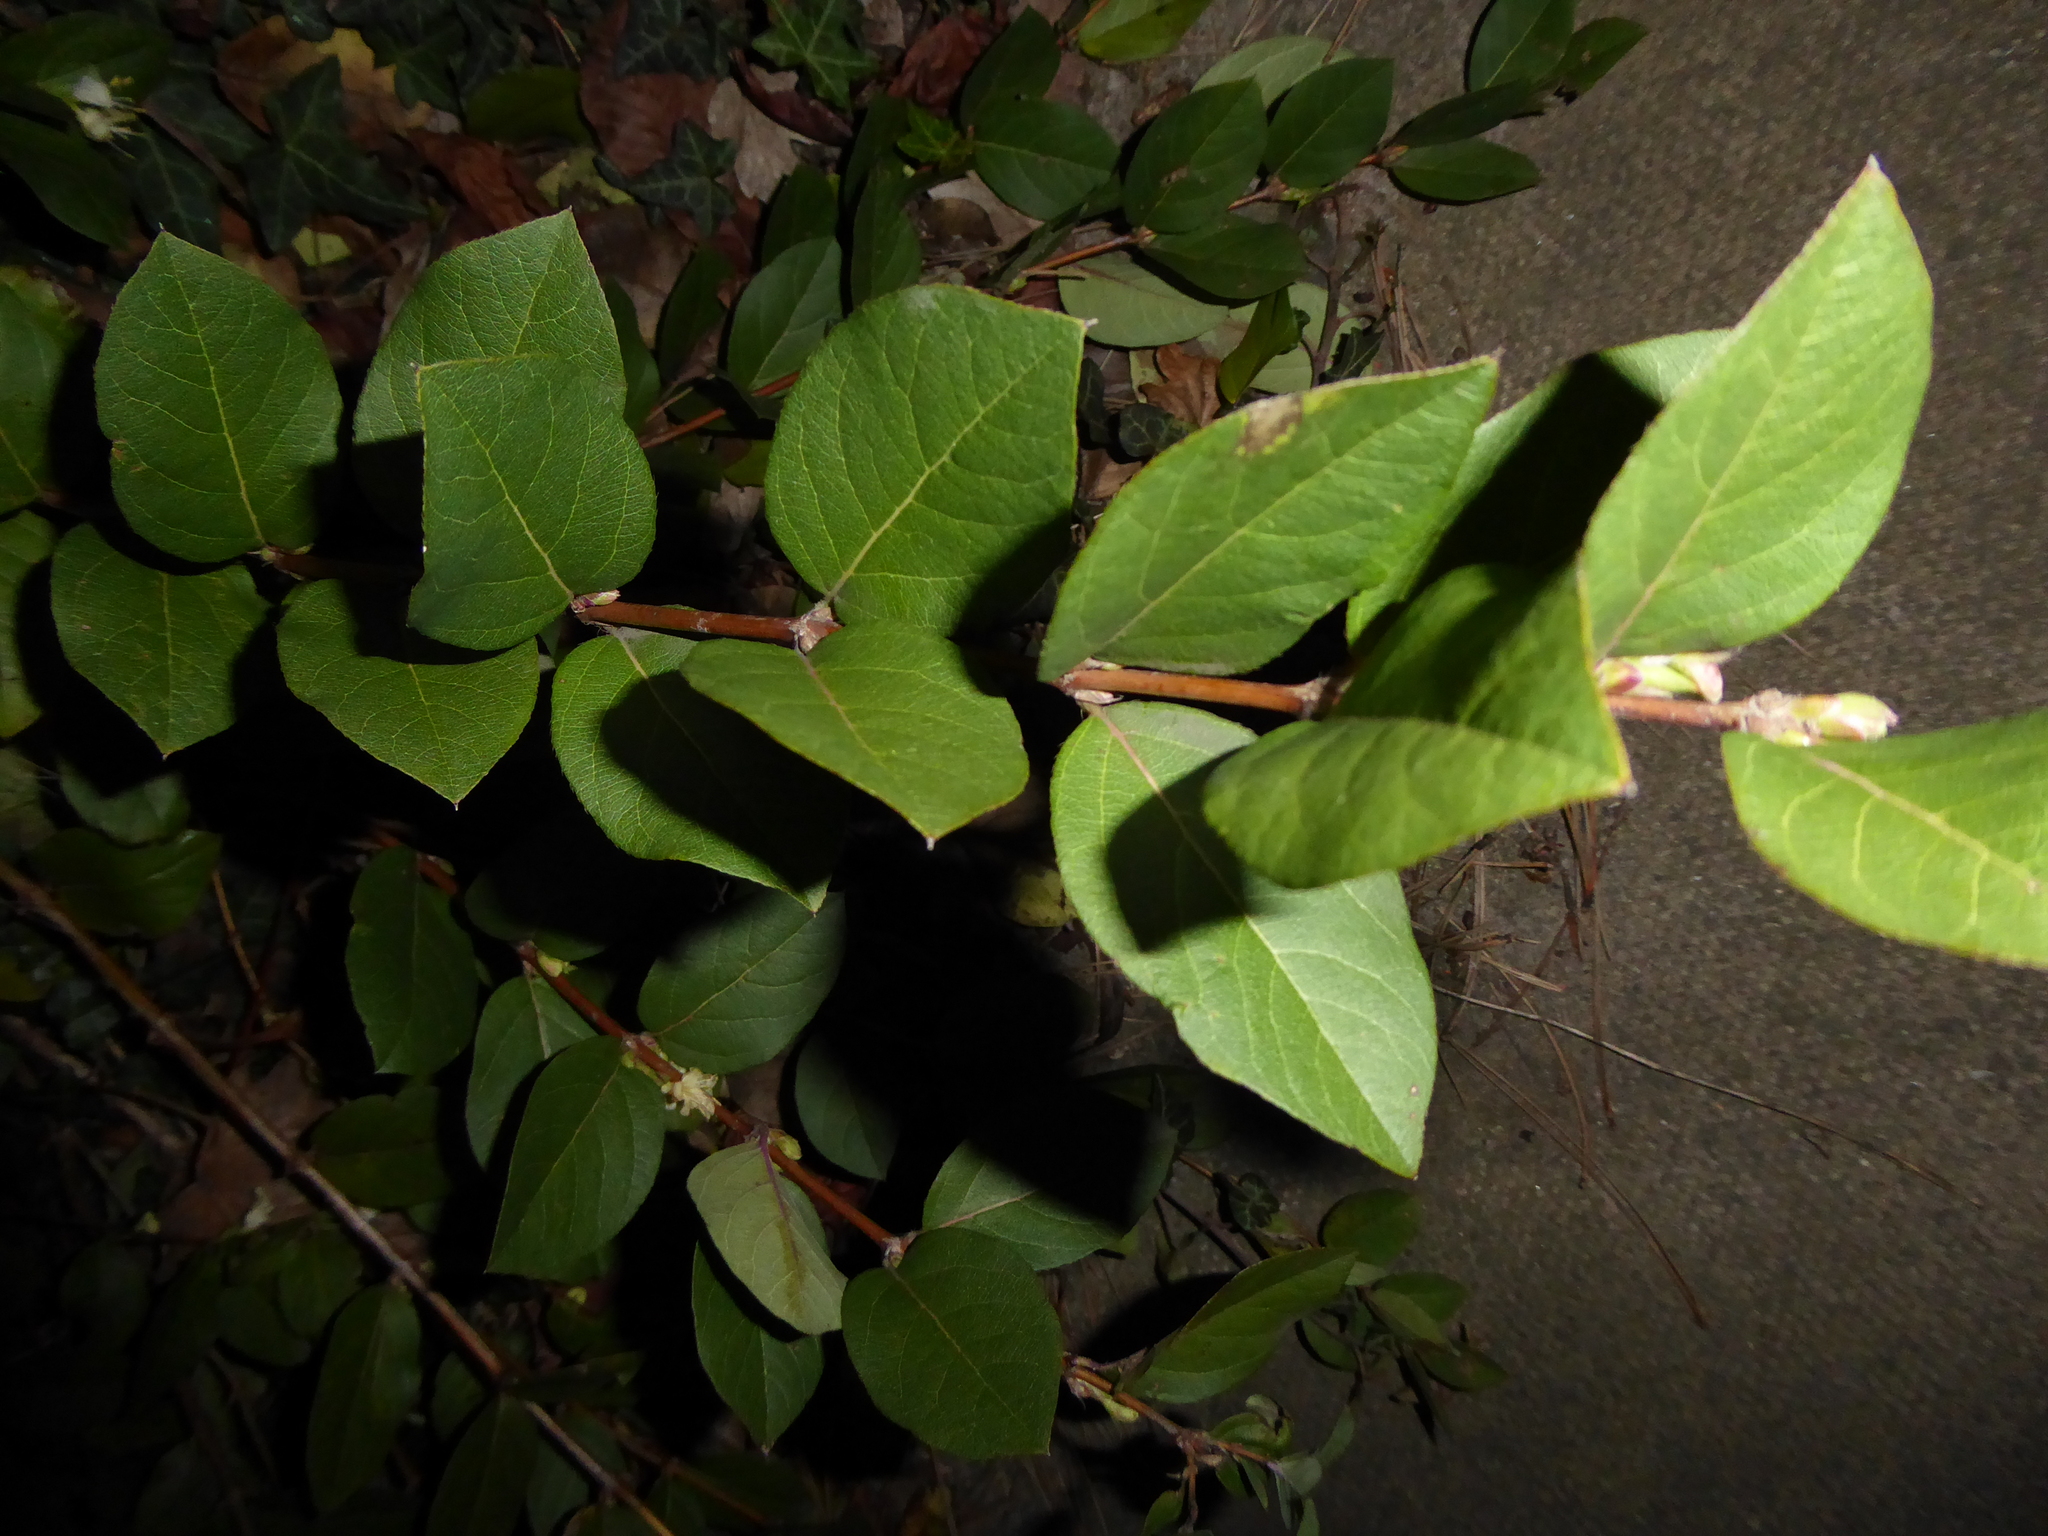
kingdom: Plantae
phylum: Tracheophyta
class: Magnoliopsida
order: Dipsacales
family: Caprifoliaceae
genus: Lonicera
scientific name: Lonicera fragrantissima
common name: Fragrant honeysuckle
